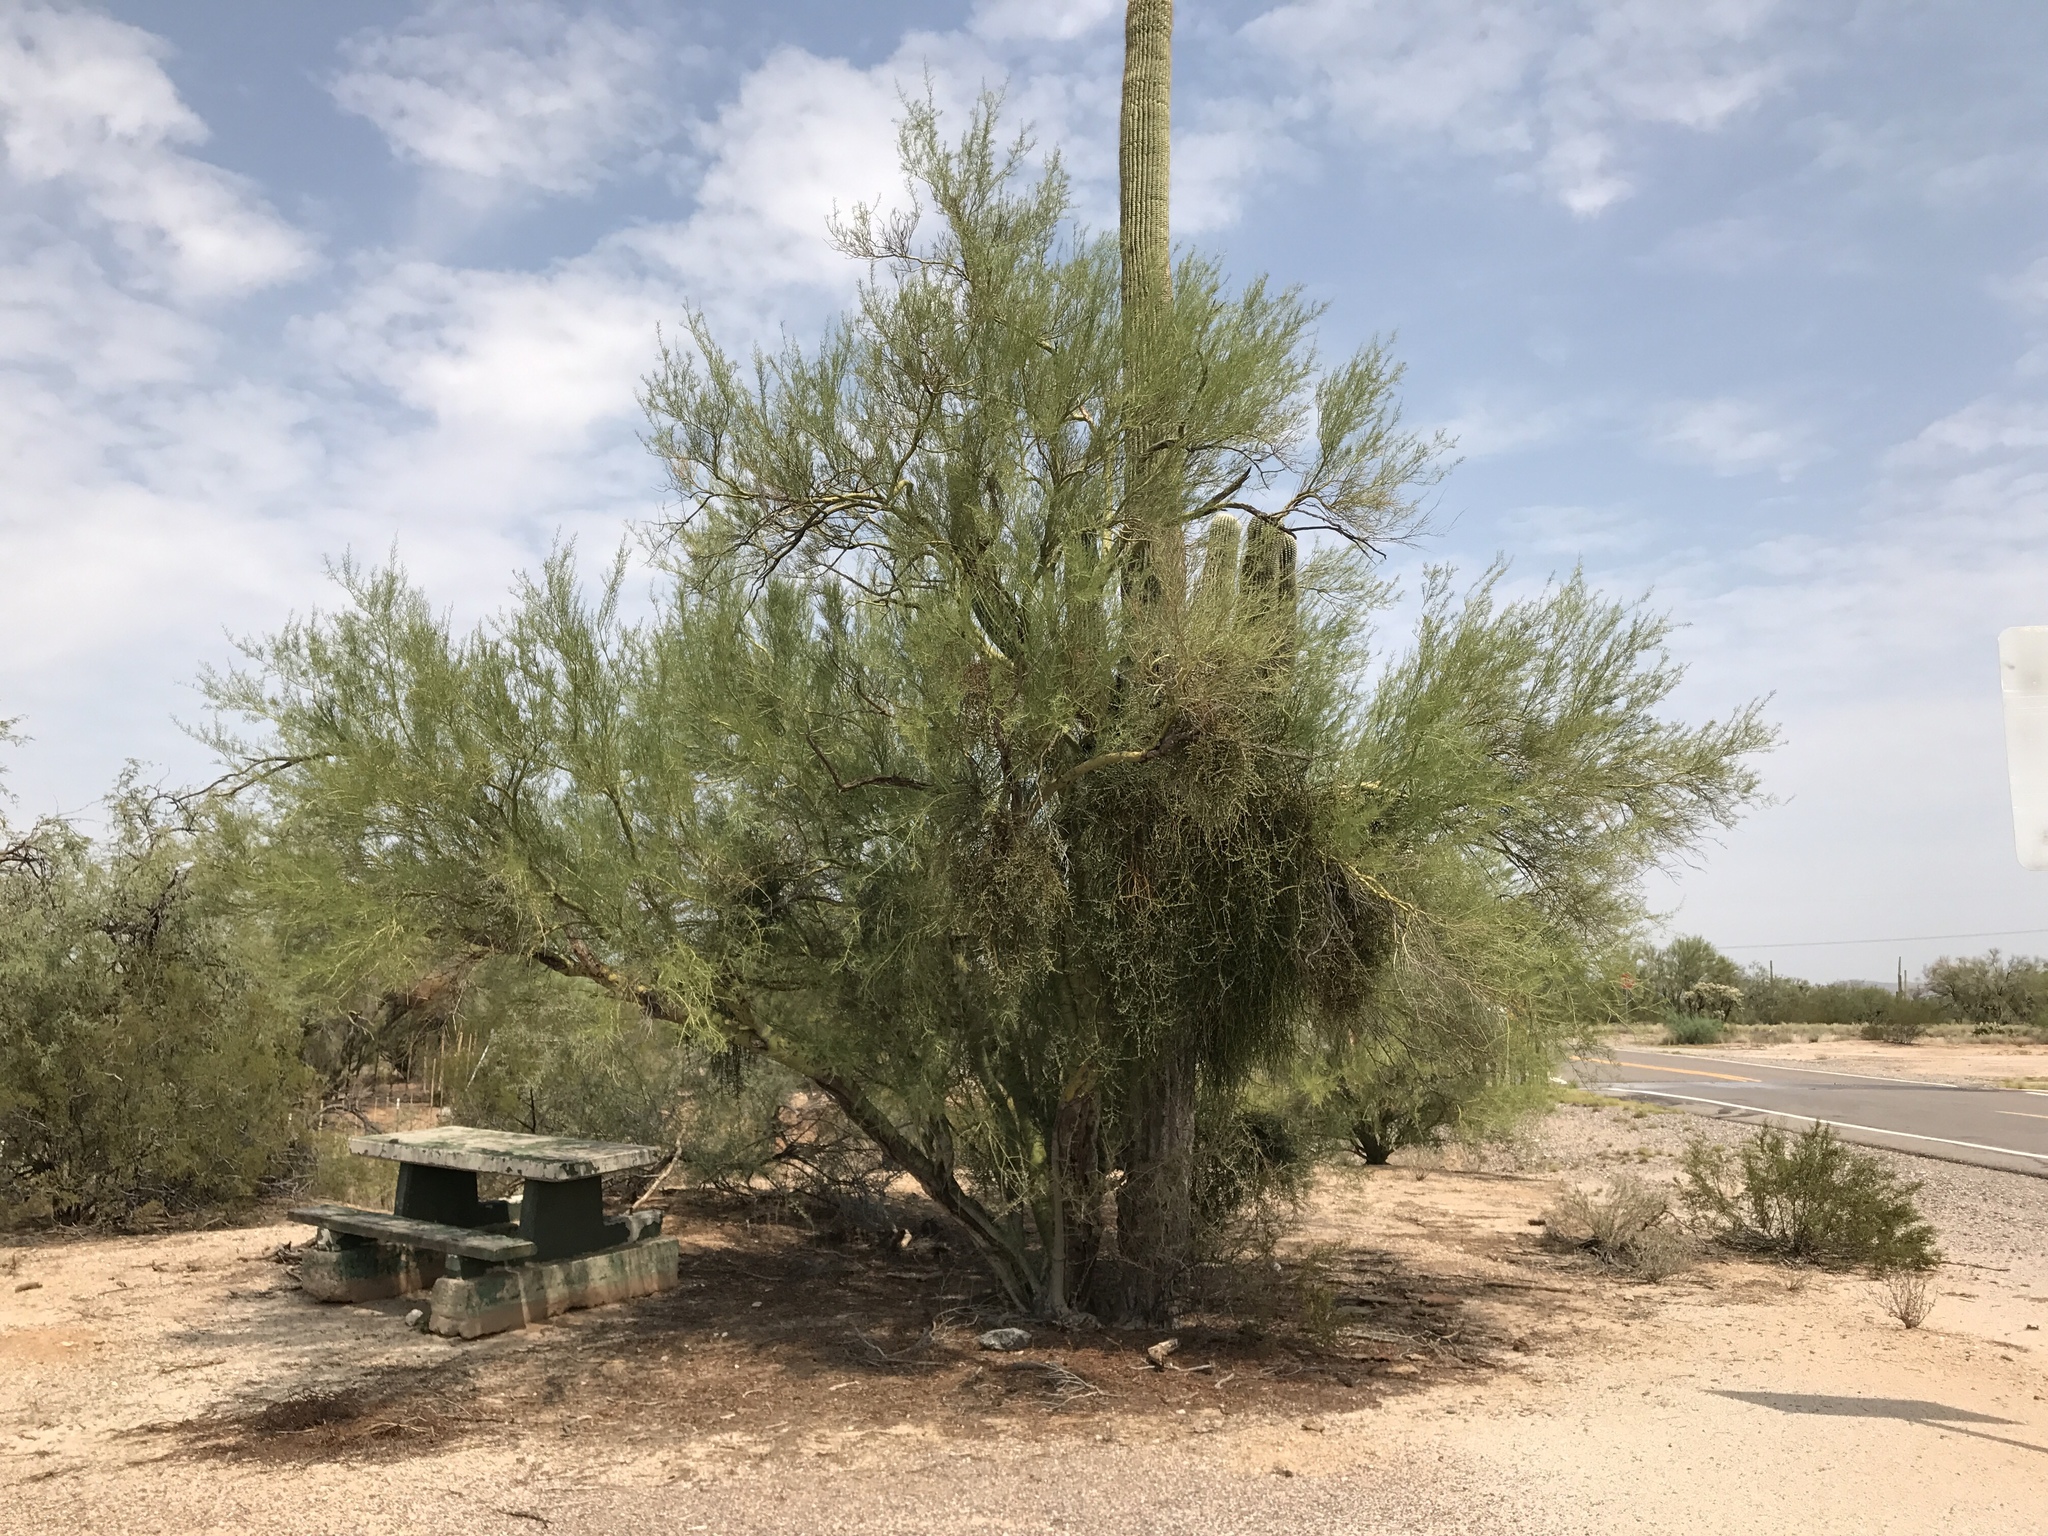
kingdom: Plantae
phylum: Tracheophyta
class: Magnoliopsida
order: Fabales
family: Fabaceae
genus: Parkinsonia
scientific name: Parkinsonia microphylla
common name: Yellow paloverde
